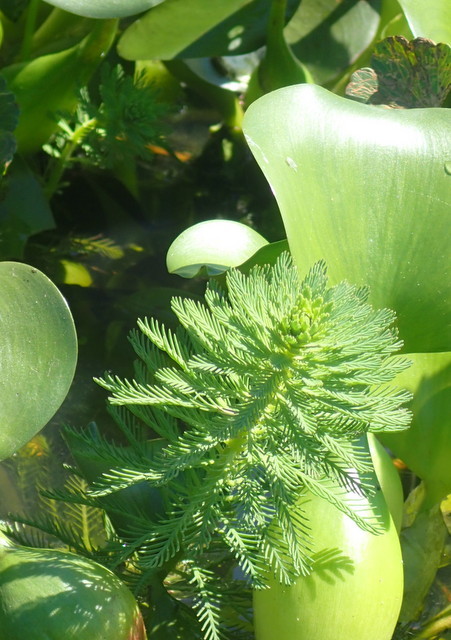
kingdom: Plantae
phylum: Tracheophyta
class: Magnoliopsida
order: Saxifragales
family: Haloragaceae
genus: Myriophyllum
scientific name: Myriophyllum aquaticum
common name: Parrot's feather
